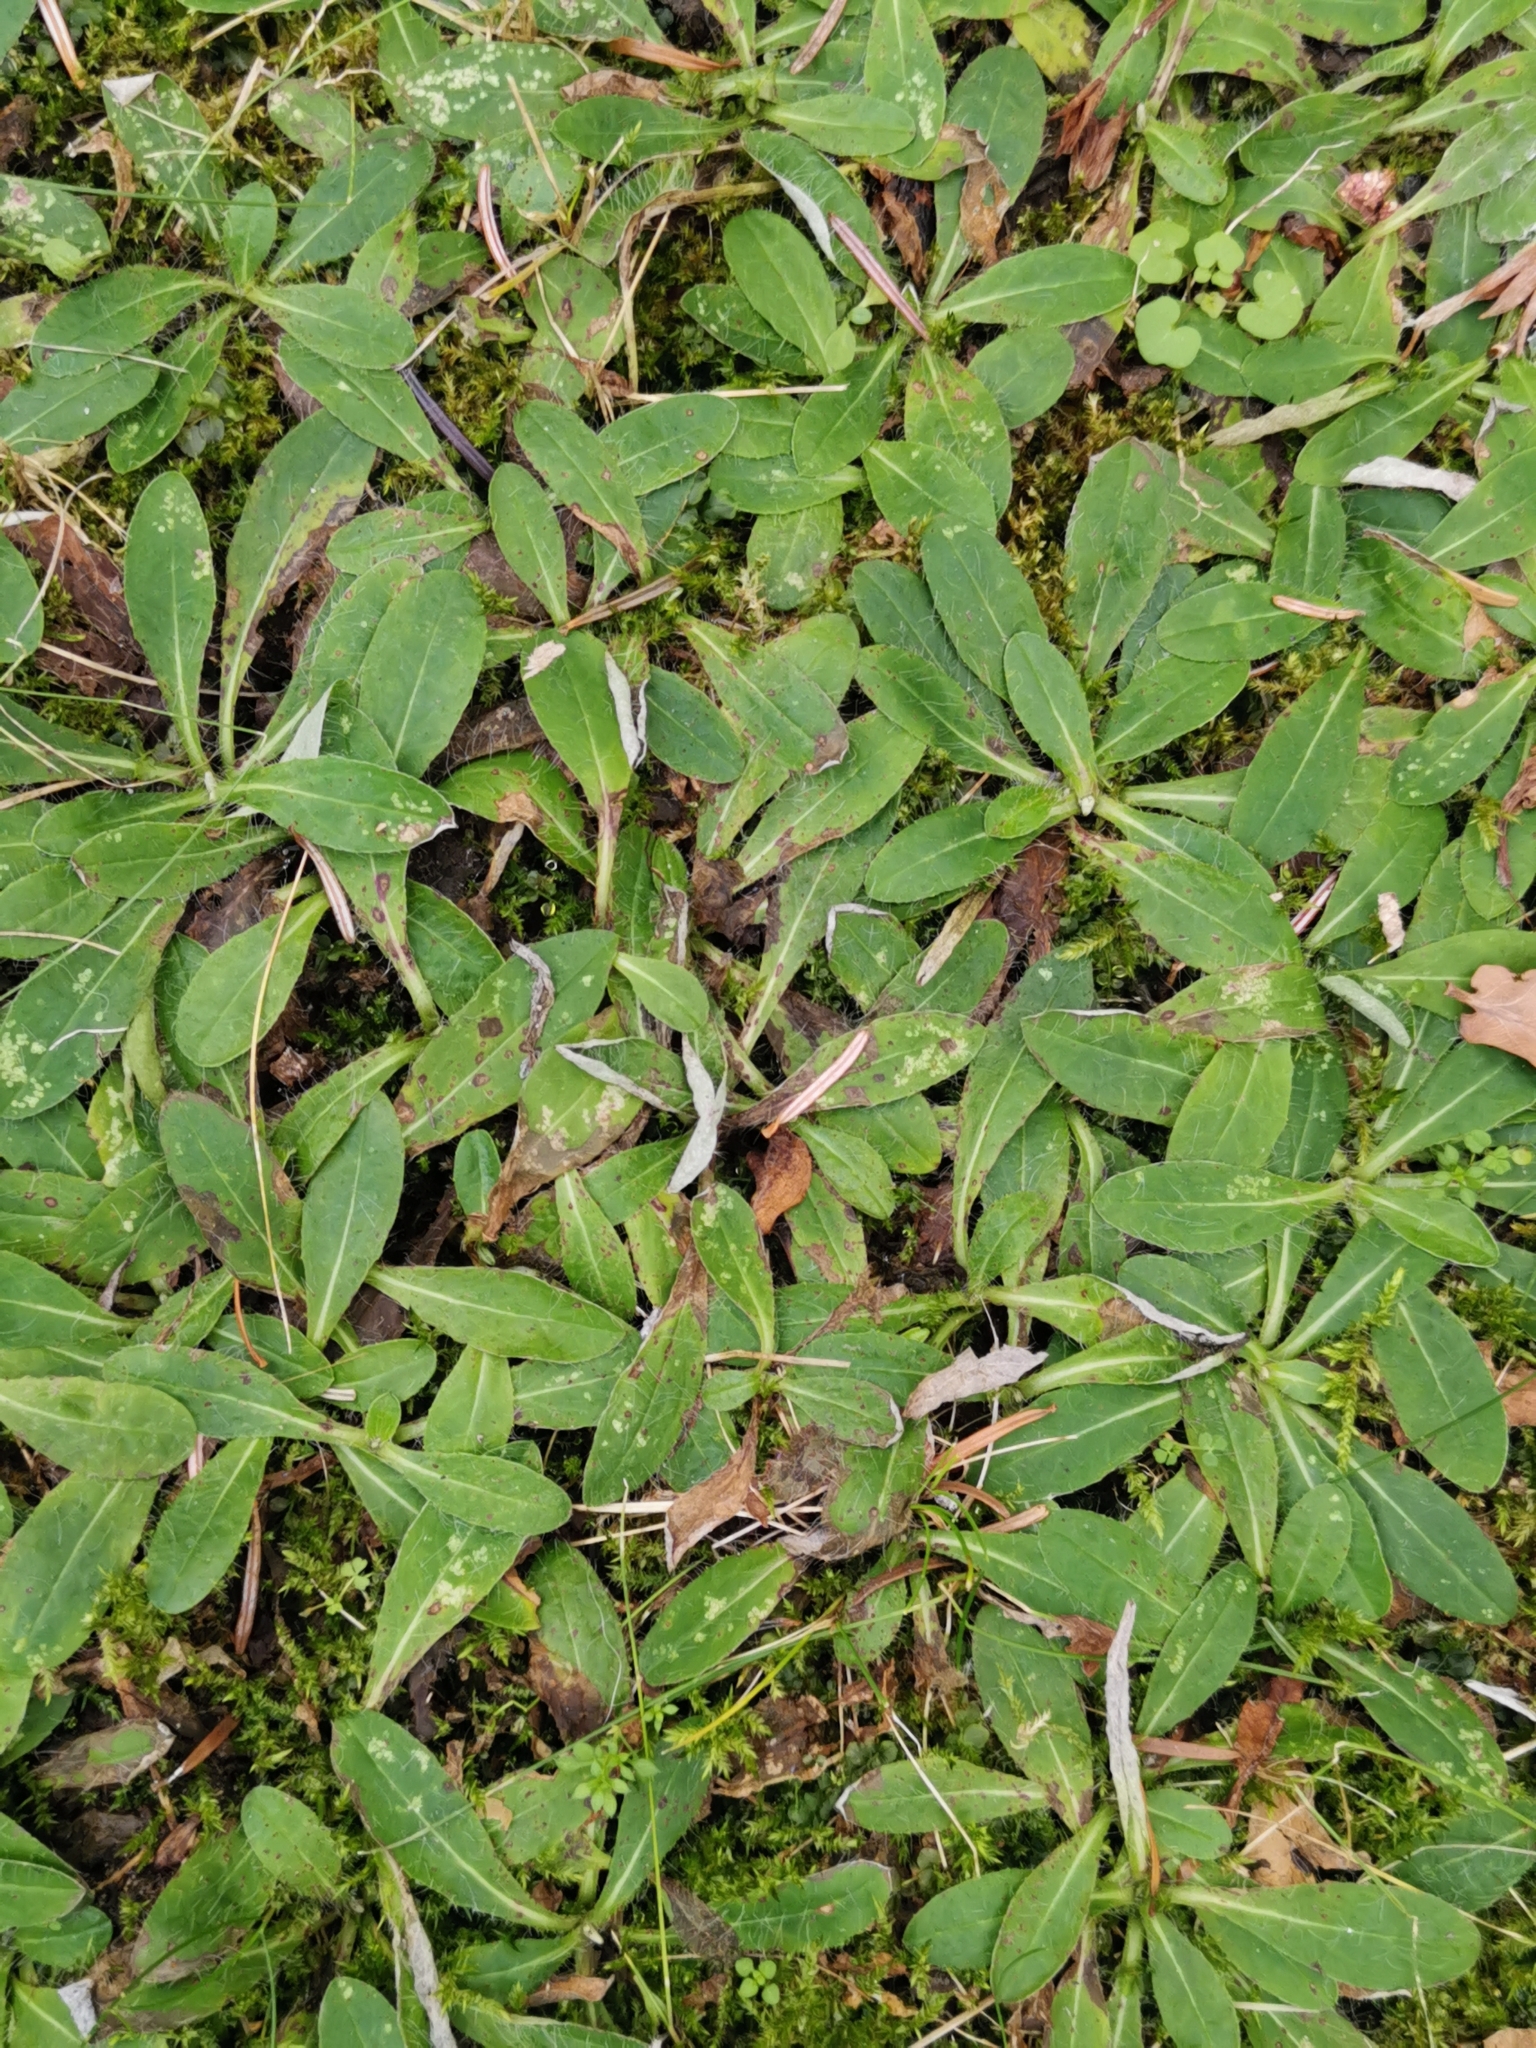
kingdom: Plantae
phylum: Tracheophyta
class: Magnoliopsida
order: Asterales
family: Asteraceae
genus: Pilosella
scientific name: Pilosella officinarum
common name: Mouse-ear hawkweed
